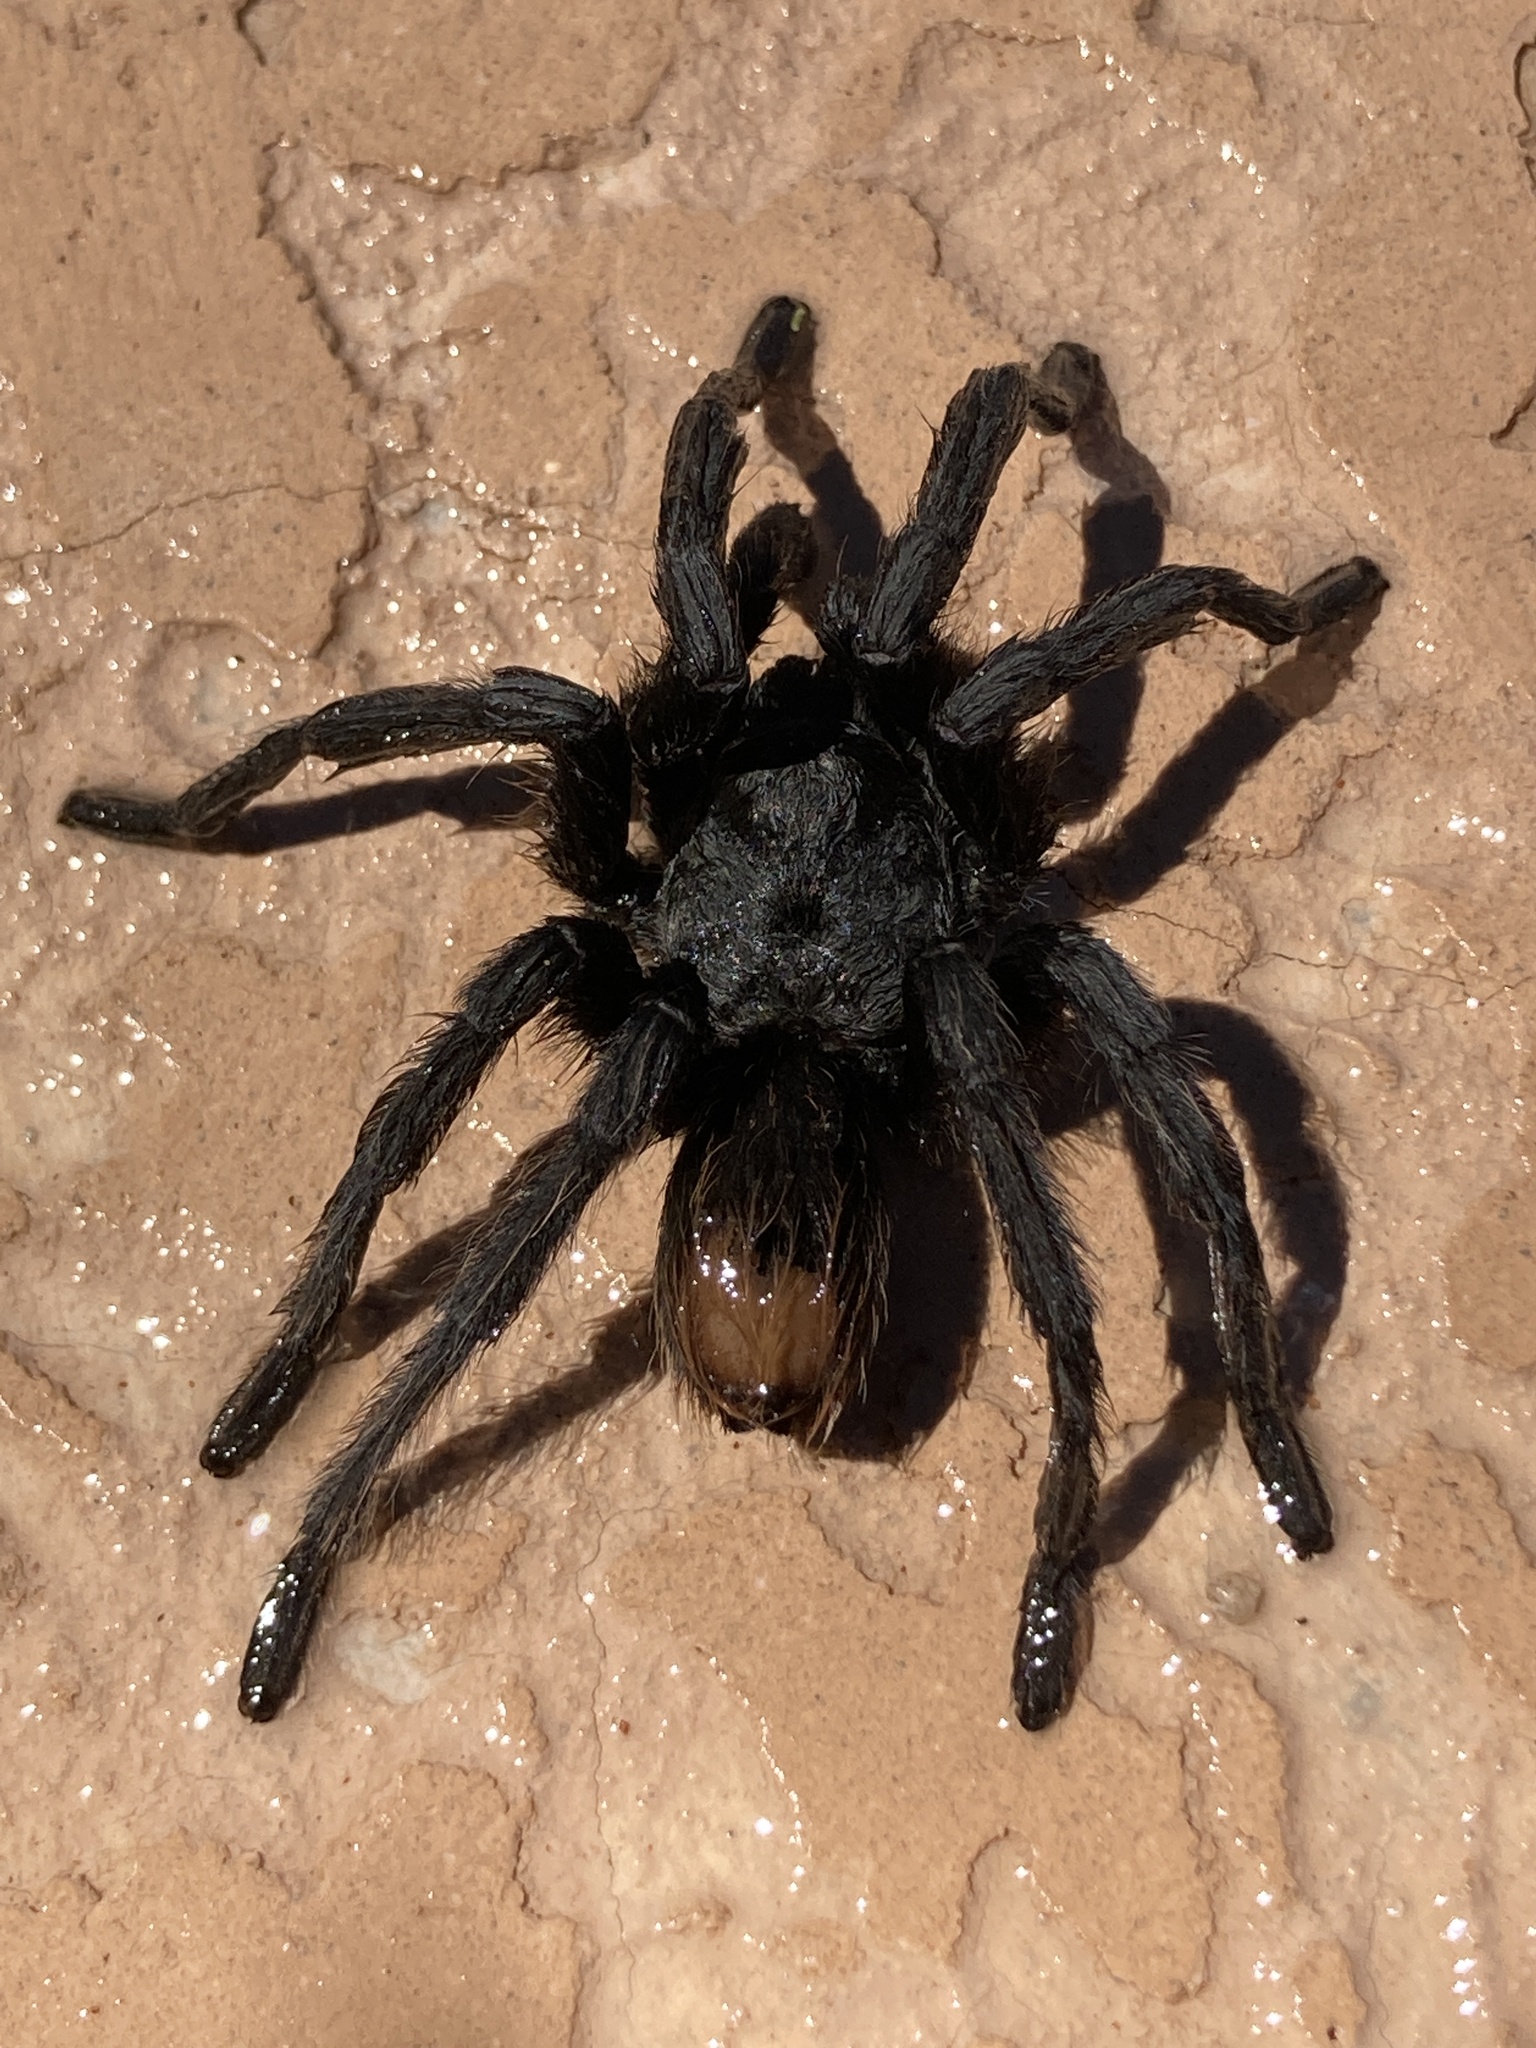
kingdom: Animalia
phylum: Arthropoda
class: Arachnida
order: Araneae
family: Theraphosidae
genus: Aphonopelma
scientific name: Aphonopelma vorhiesi
